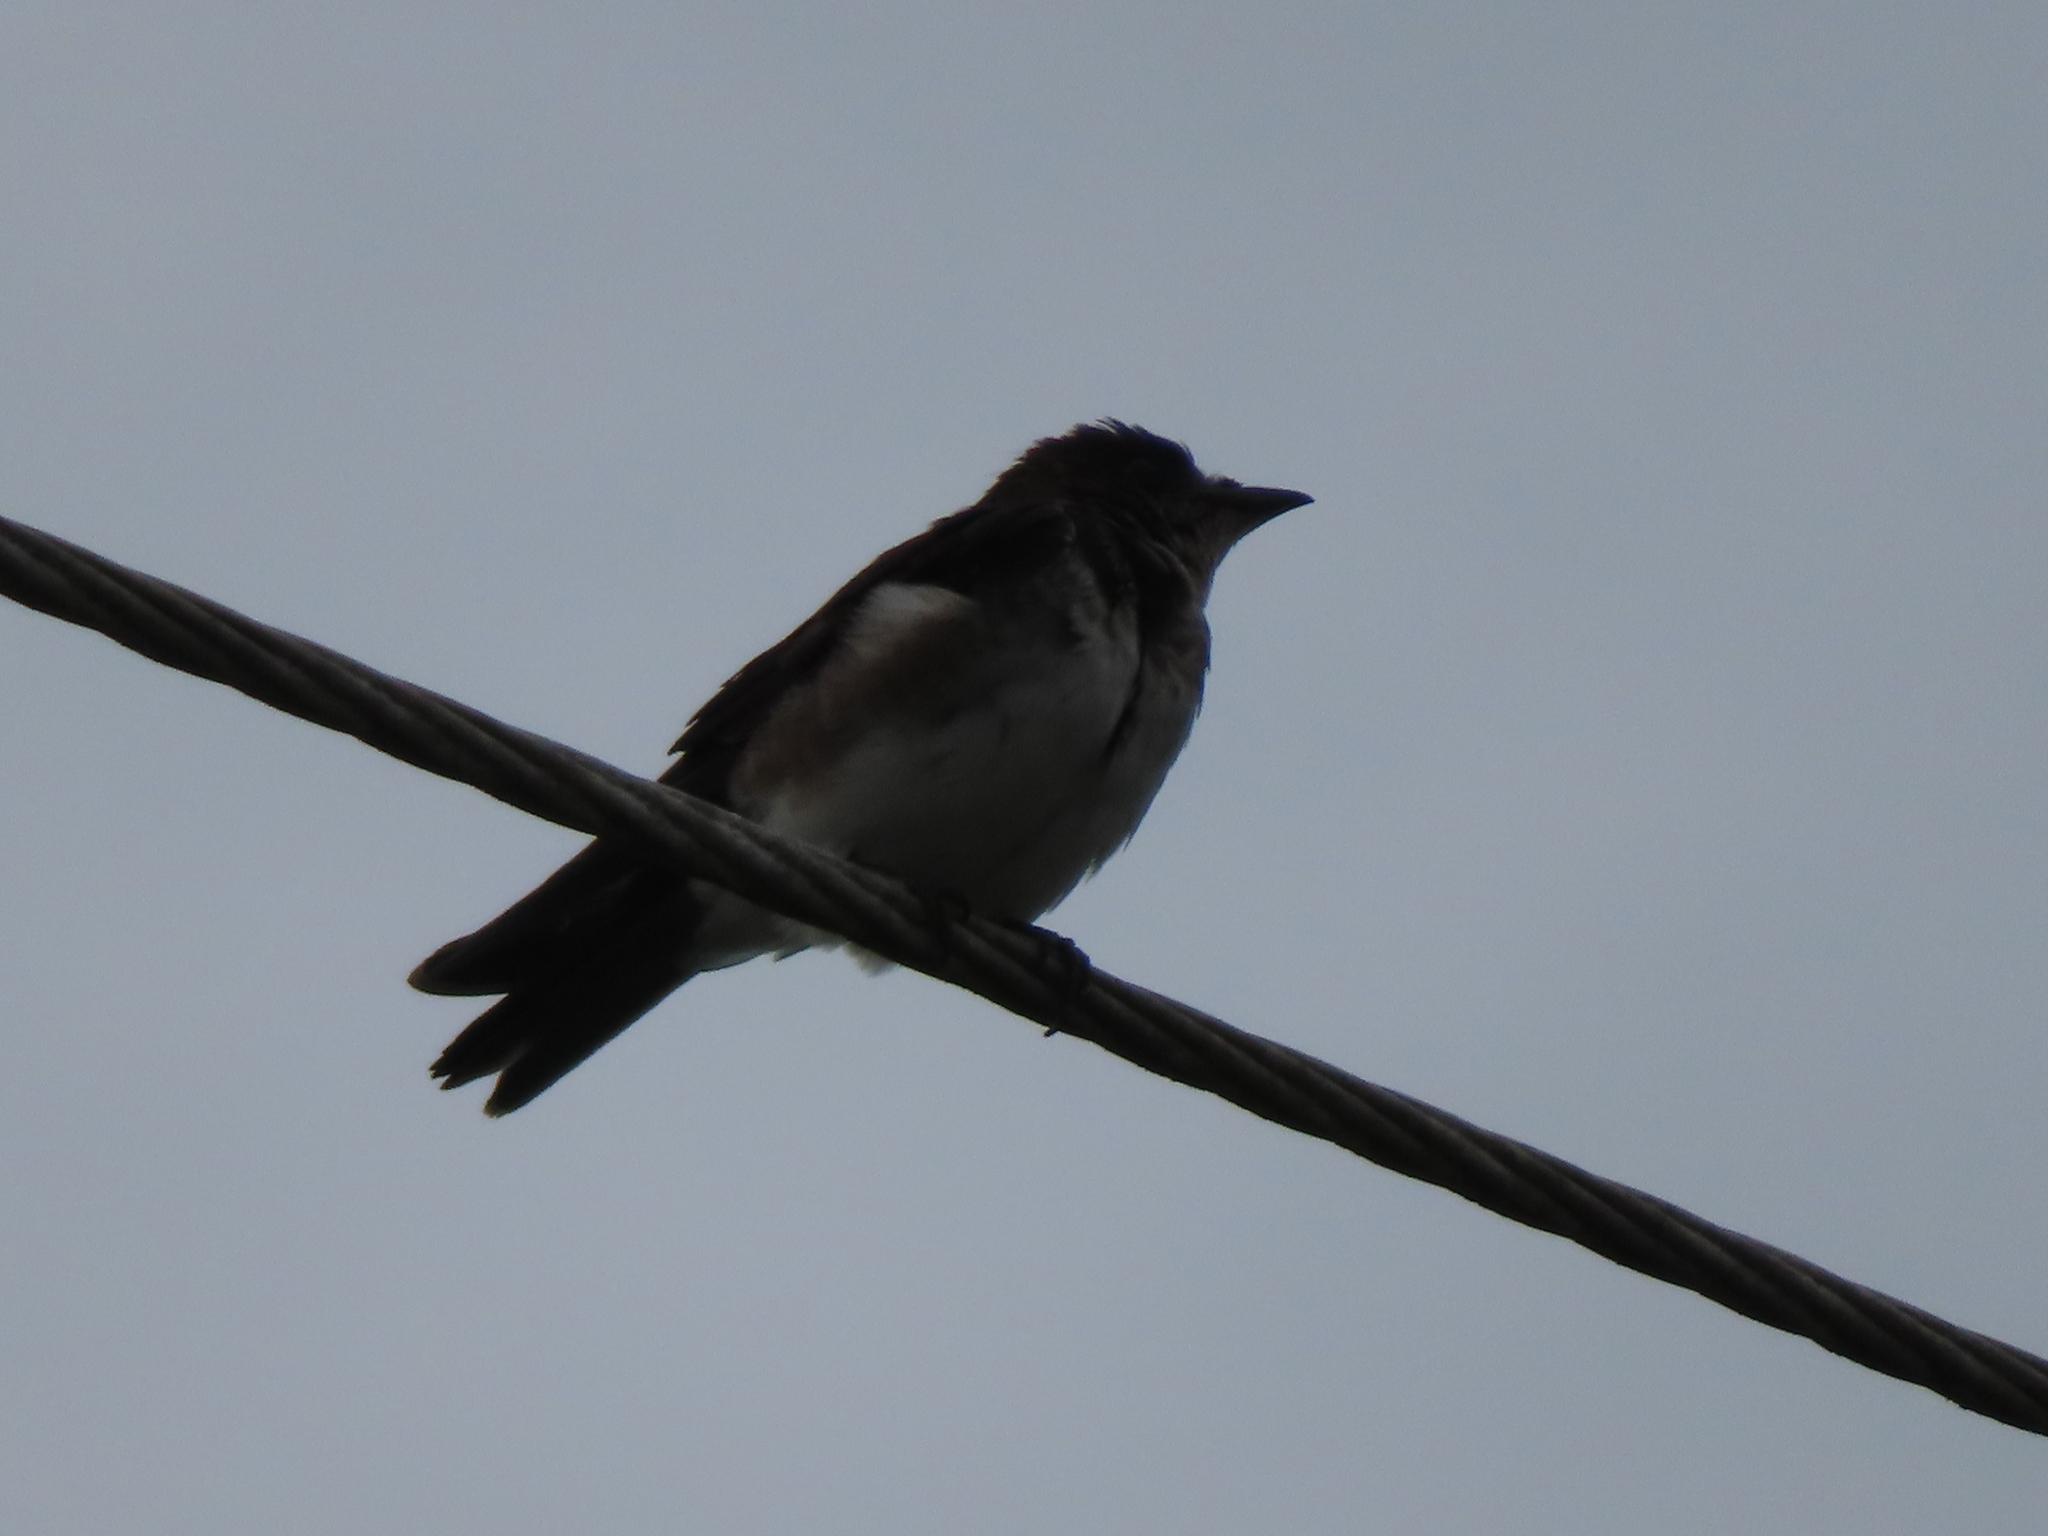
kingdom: Animalia
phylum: Chordata
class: Aves
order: Passeriformes
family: Hirundinidae
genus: Progne
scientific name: Progne chalybea
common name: Grey-breasted martin
